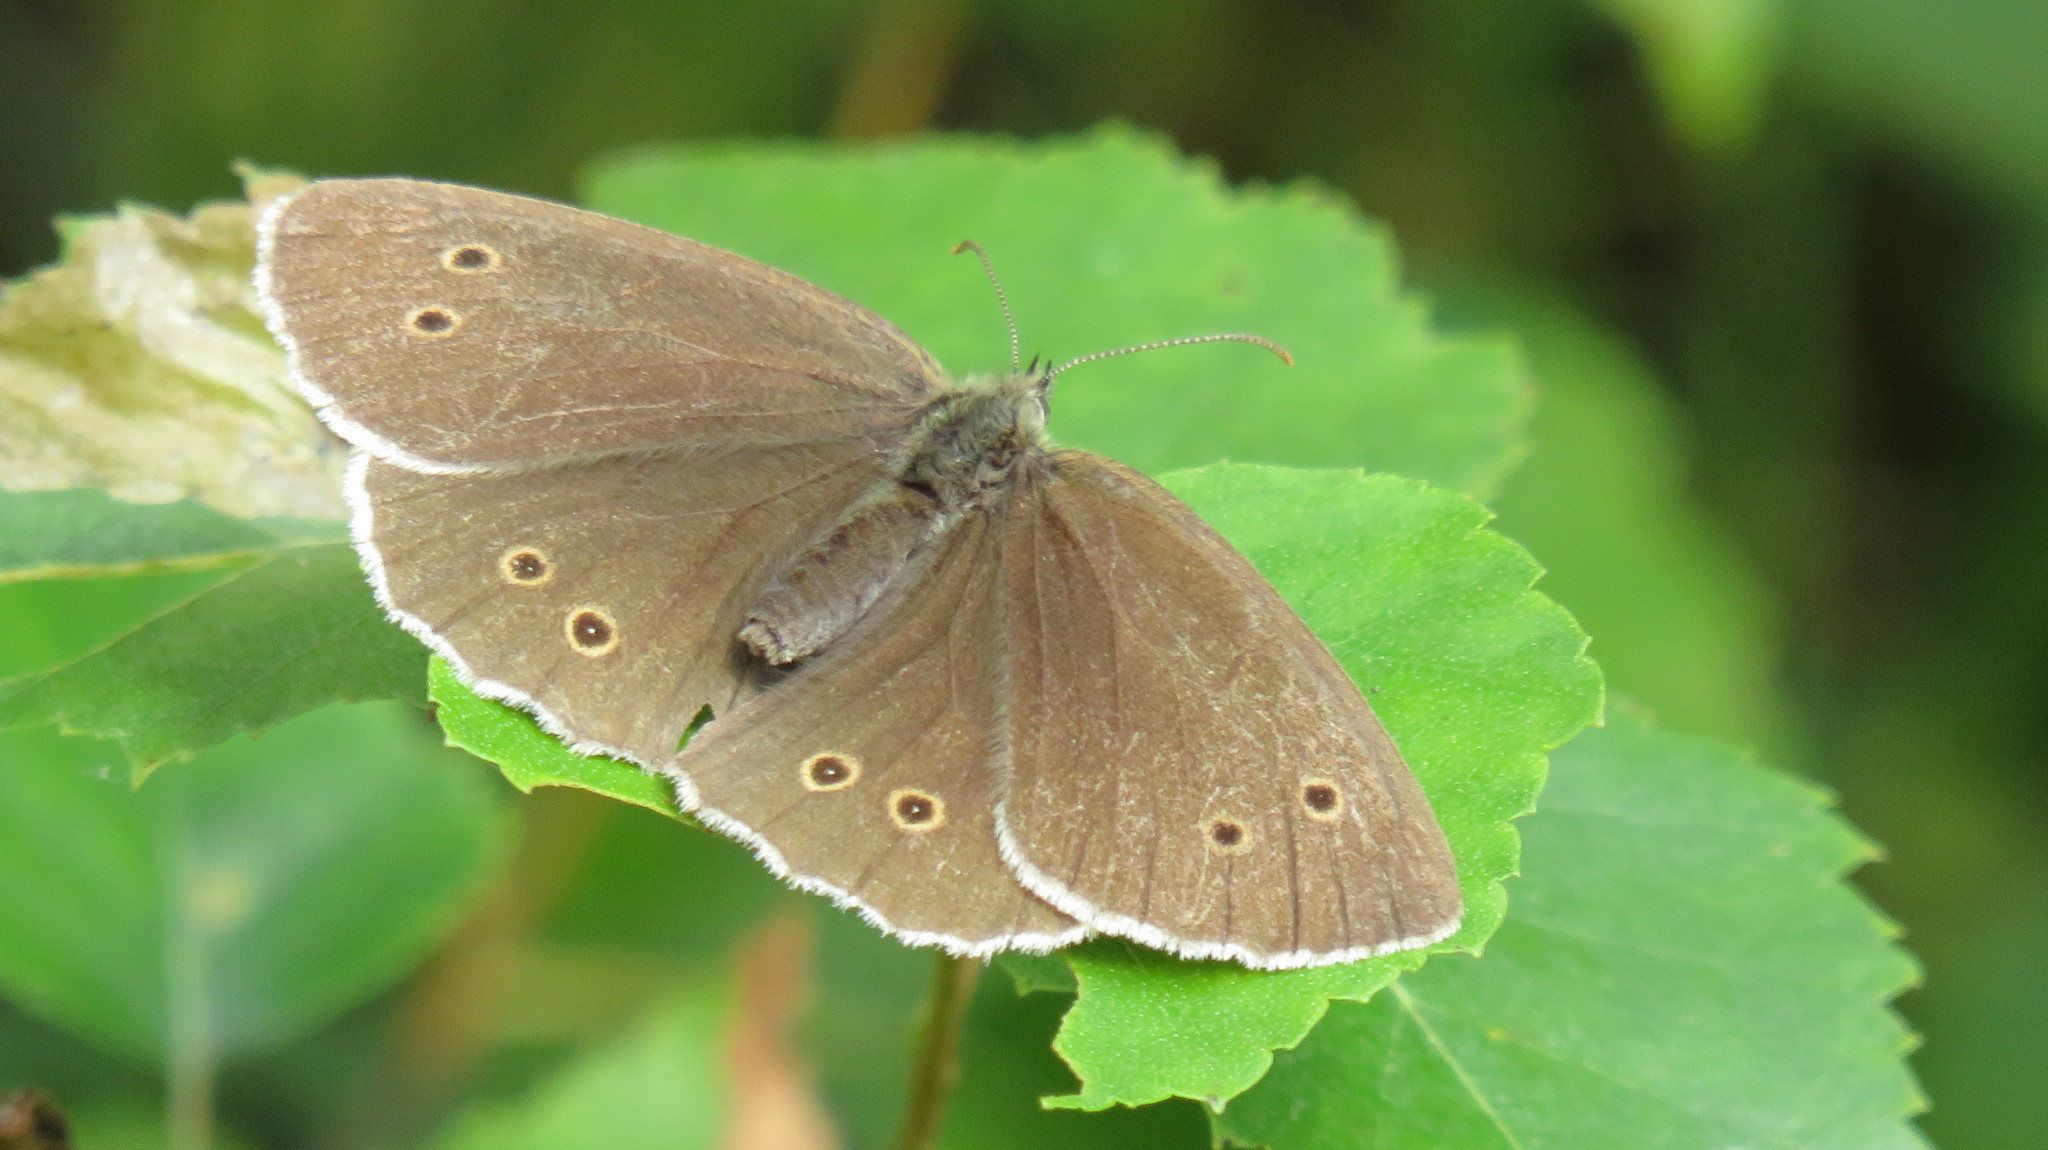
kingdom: Animalia
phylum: Arthropoda
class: Insecta
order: Lepidoptera
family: Nymphalidae
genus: Aphantopus
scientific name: Aphantopus hyperantus
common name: Ringlet
